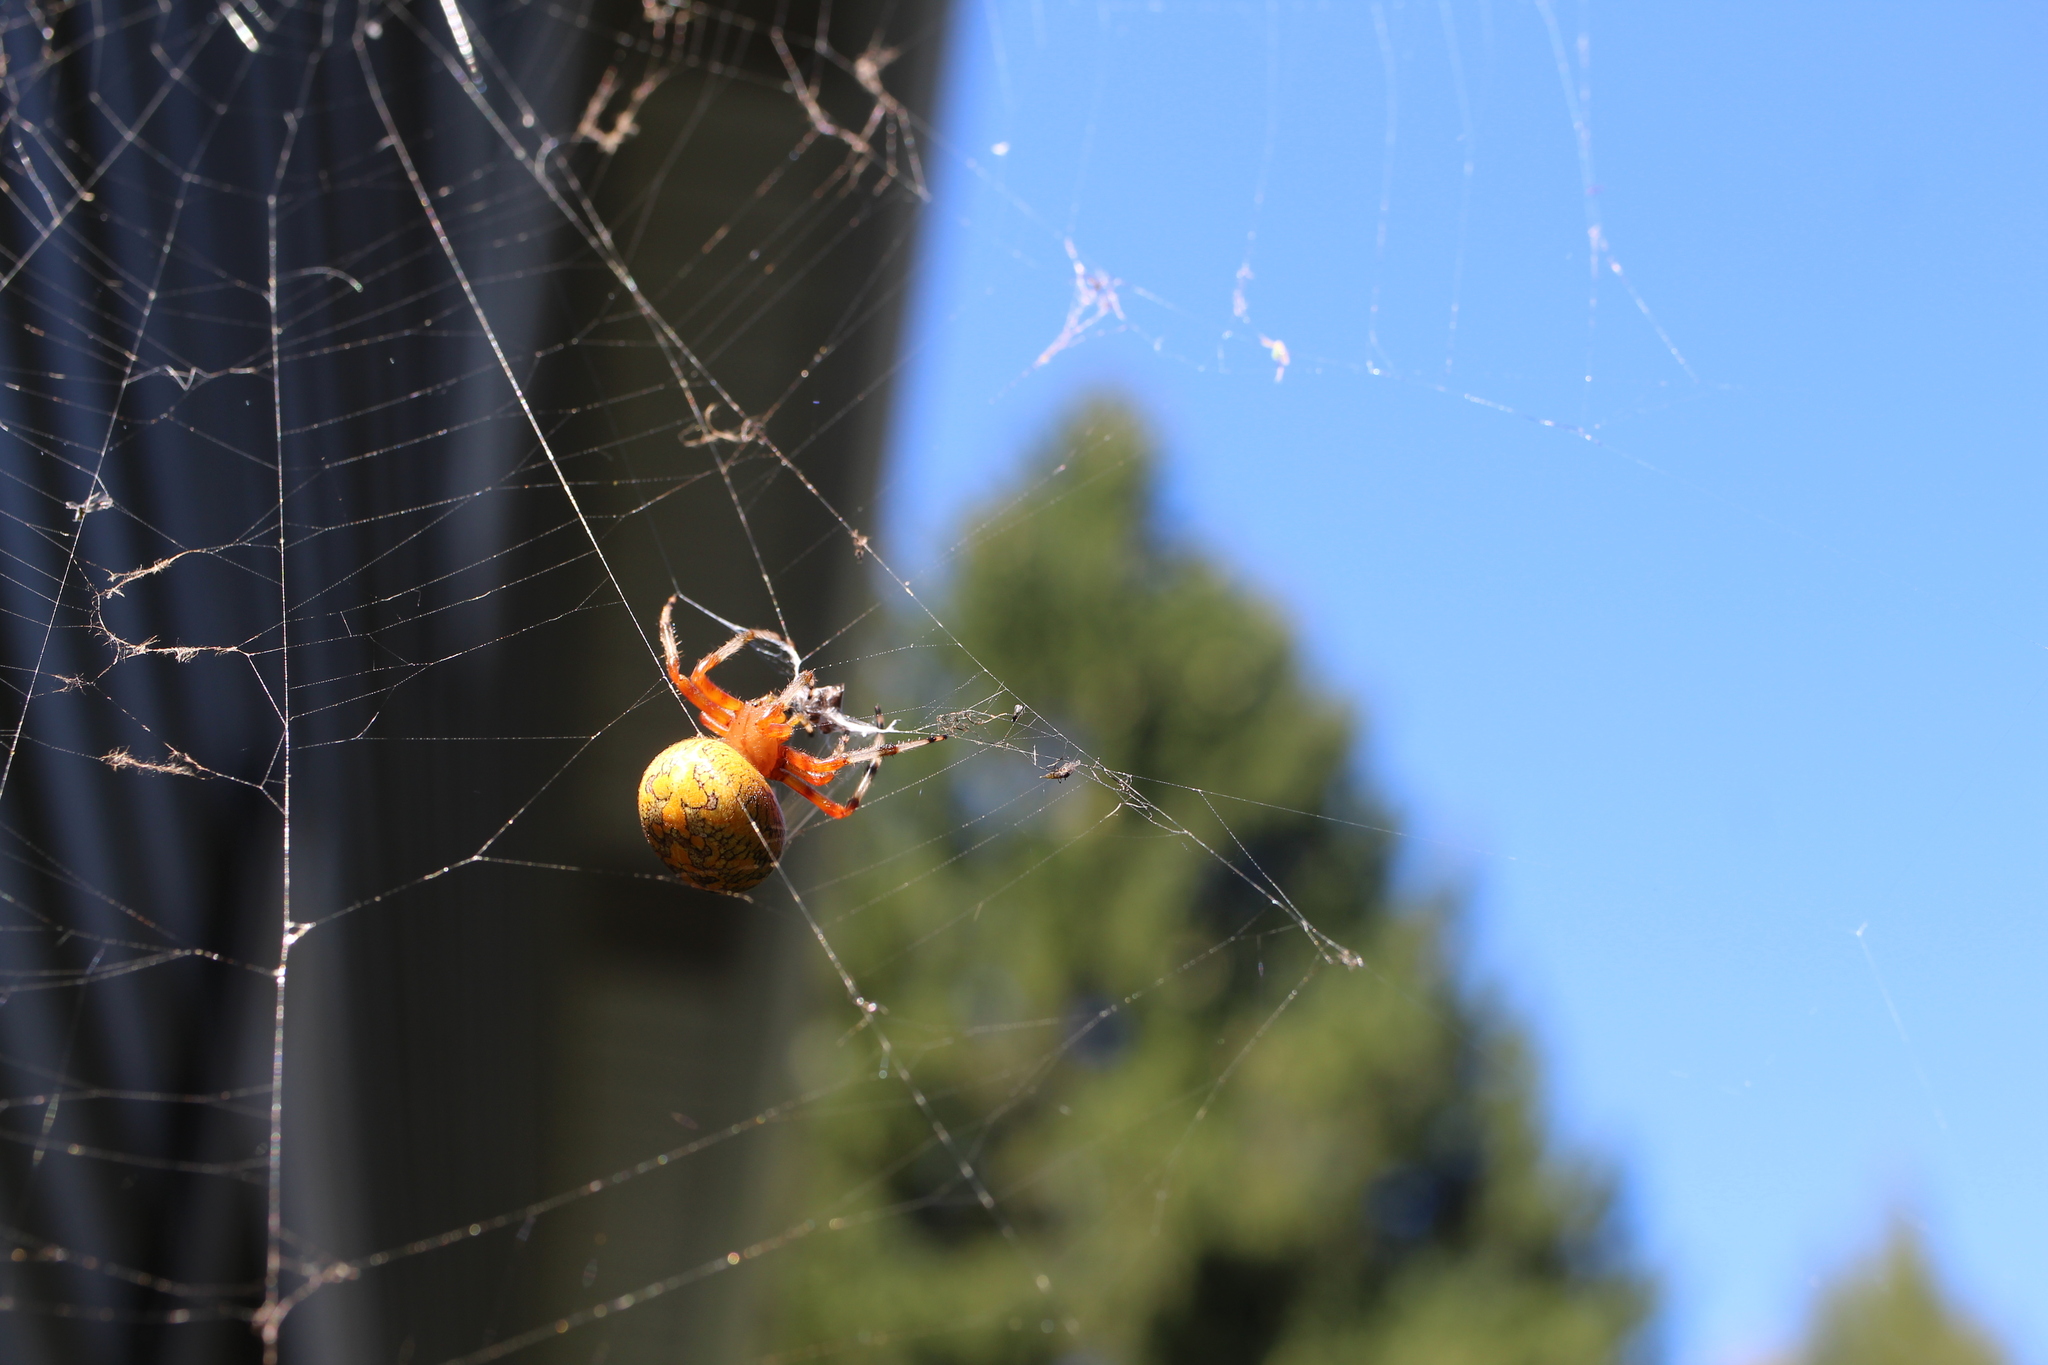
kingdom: Animalia
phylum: Arthropoda
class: Arachnida
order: Araneae
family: Araneidae
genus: Araneus
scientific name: Araneus marmoreus
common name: Marbled orbweaver
